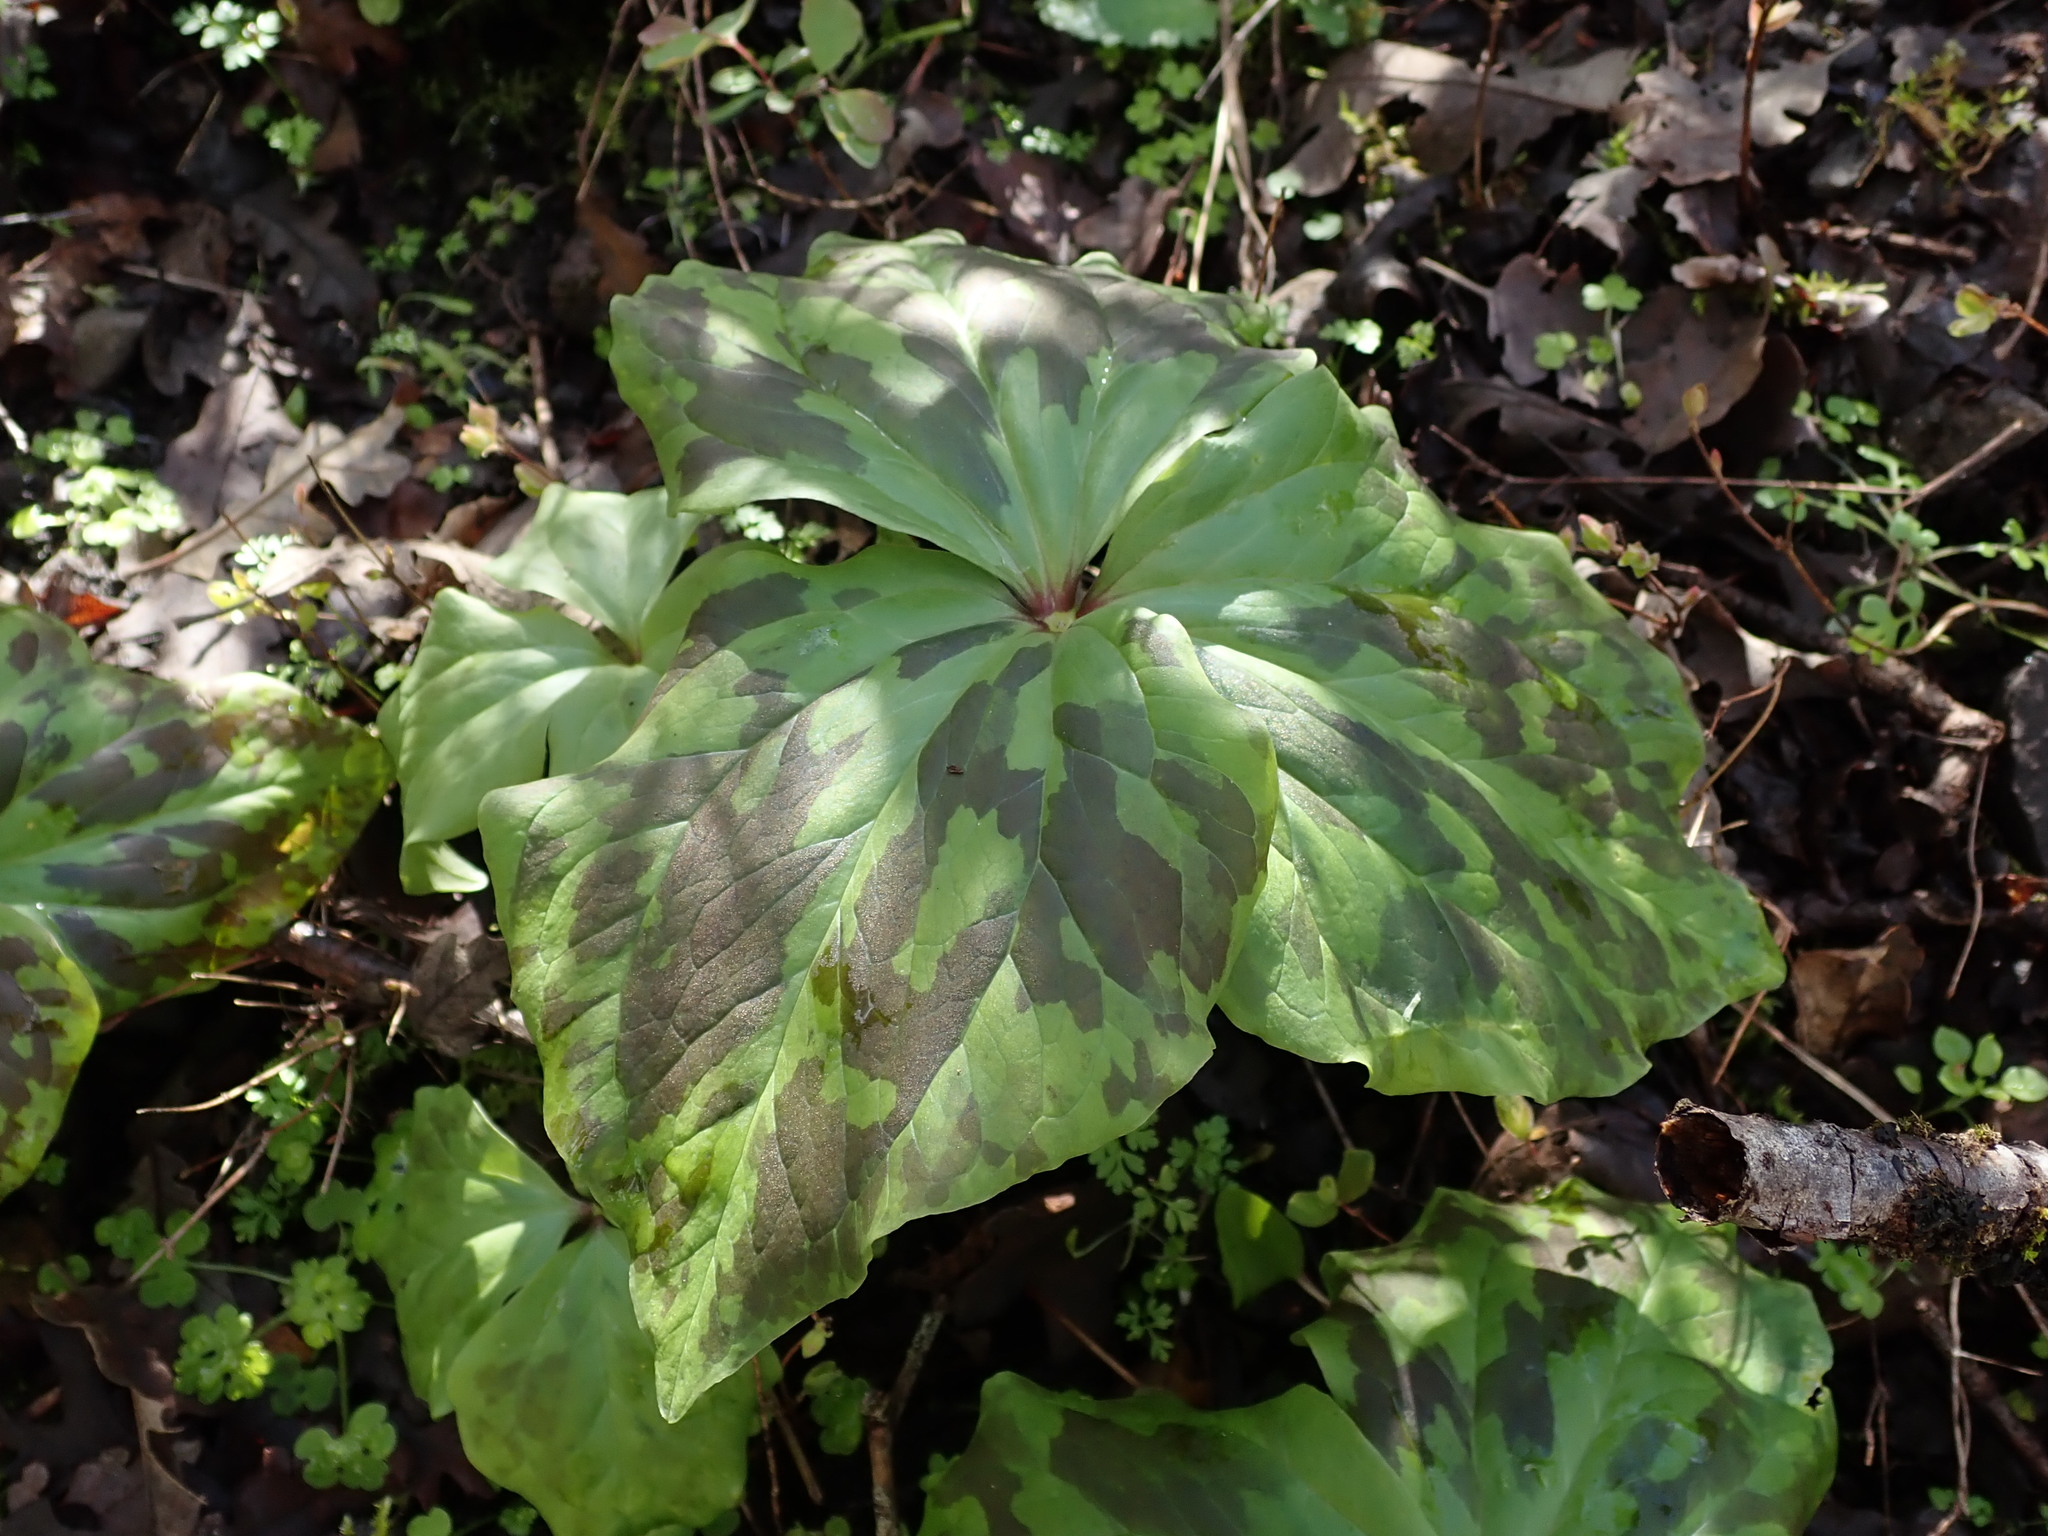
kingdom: Plantae
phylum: Tracheophyta
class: Liliopsida
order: Liliales
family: Melanthiaceae
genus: Trillium
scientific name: Trillium chloropetalum
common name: Giant trillium
